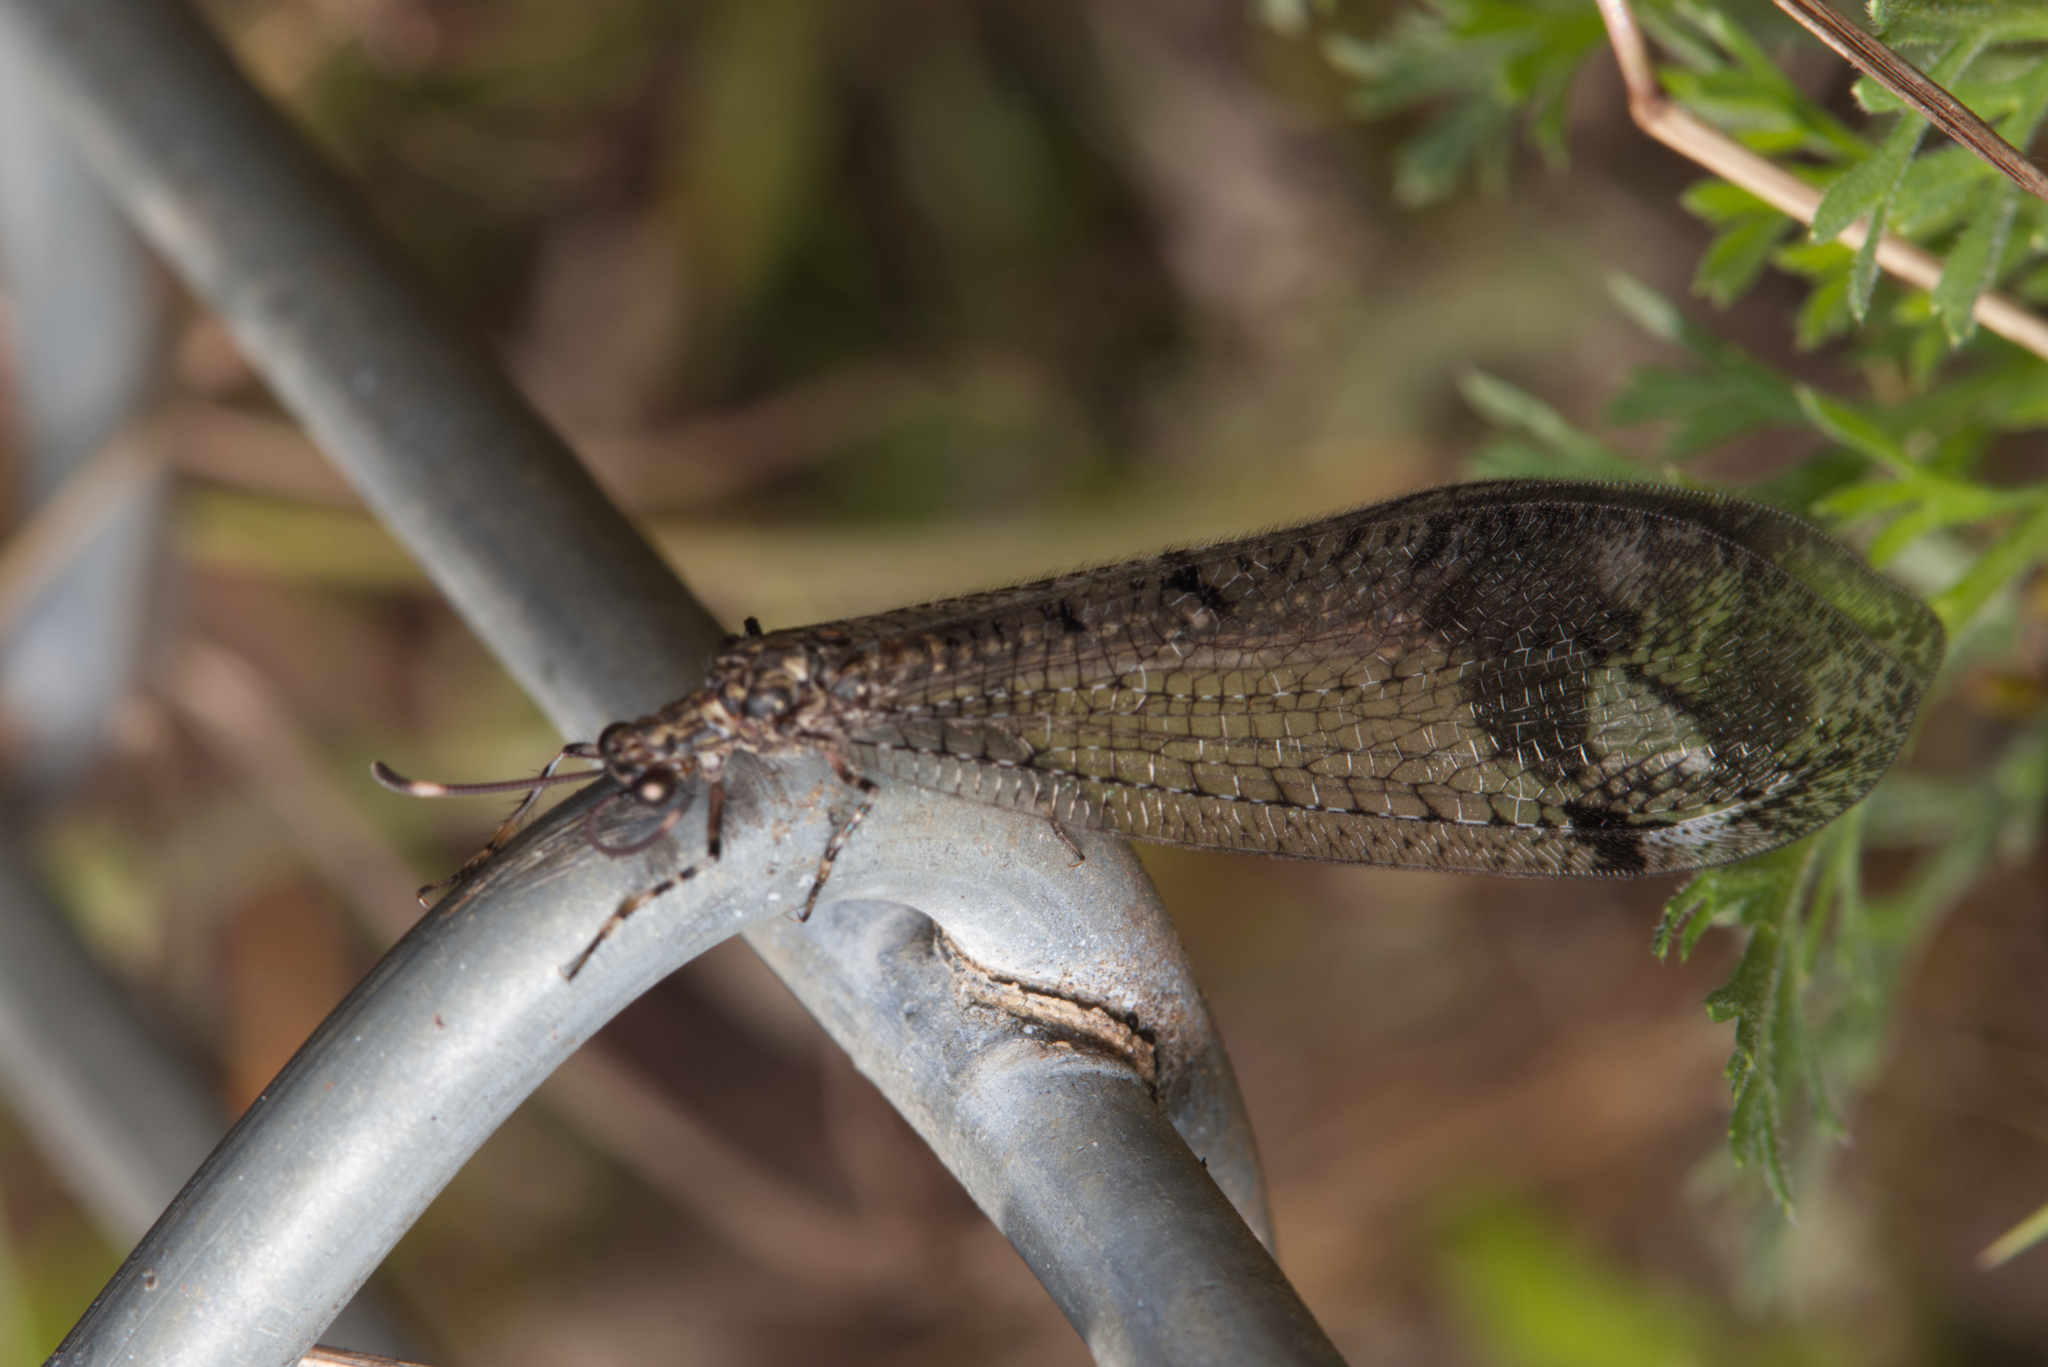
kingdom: Animalia
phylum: Arthropoda
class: Insecta
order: Neuroptera
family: Myrmeleontidae
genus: Glenoleon
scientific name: Glenoleon pulchellus
